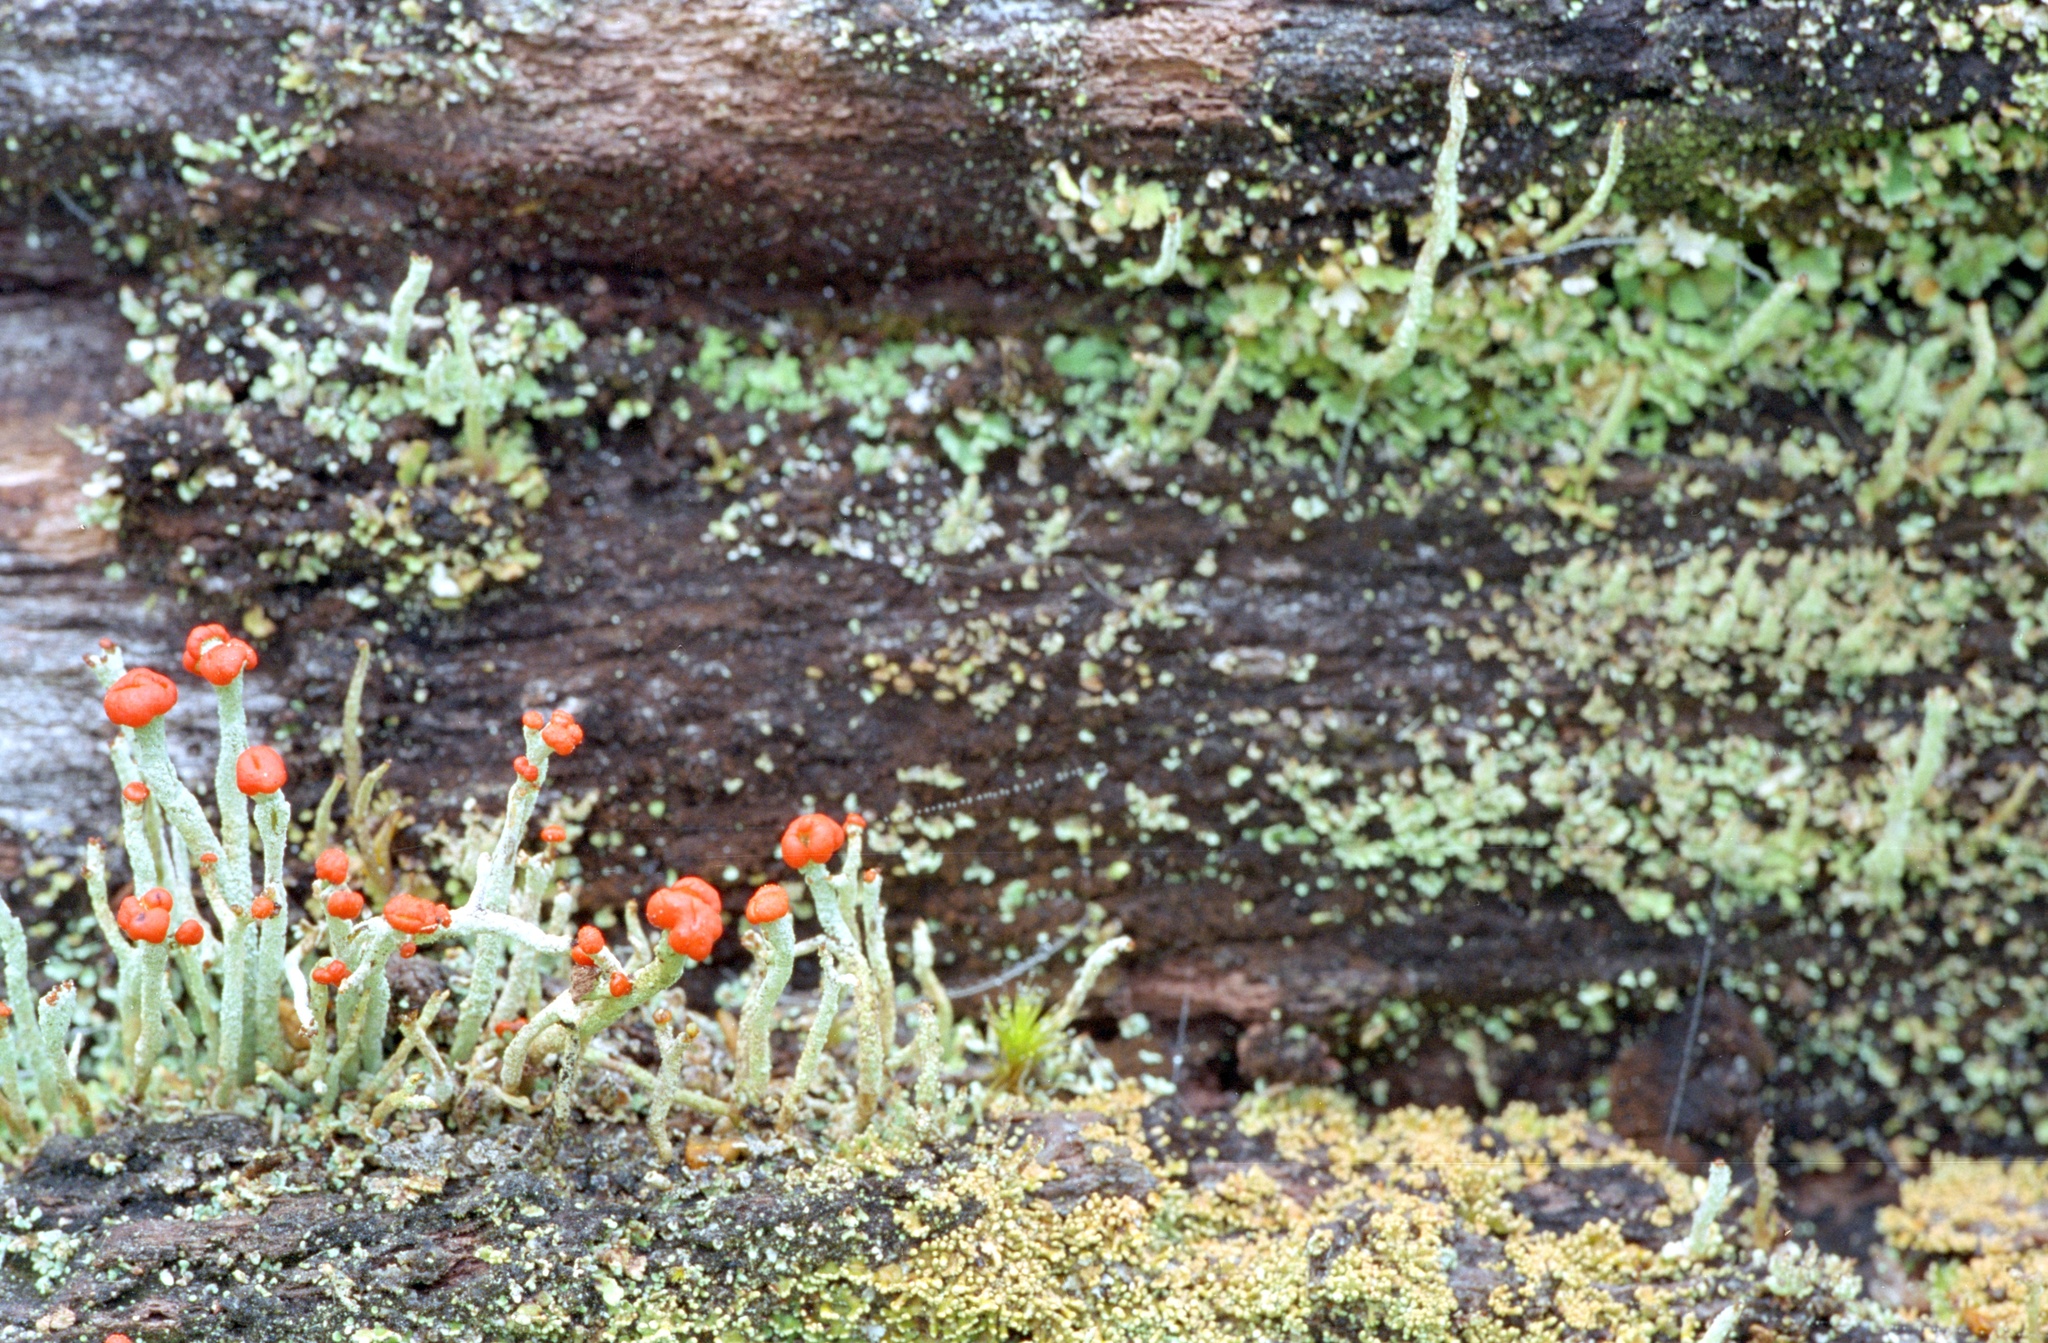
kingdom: Fungi
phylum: Ascomycota
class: Lecanoromycetes
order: Lecanorales
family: Cladoniaceae
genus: Cladonia
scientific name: Cladonia floerkeana
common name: Gritty british soldiers lichen
